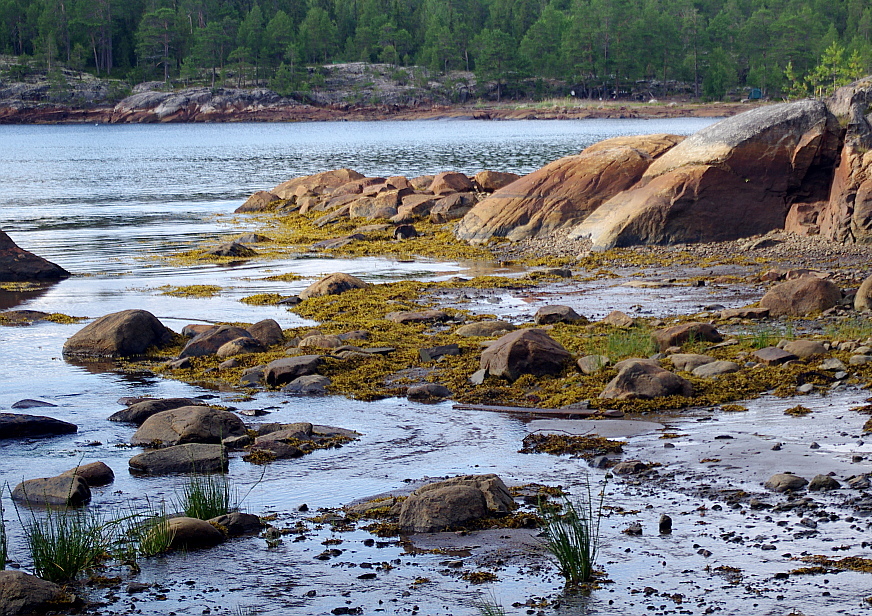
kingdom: Plantae
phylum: Tracheophyta
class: Liliopsida
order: Alismatales
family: Juncaginaceae
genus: Triglochin
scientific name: Triglochin maritima
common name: Sea arrowgrass
